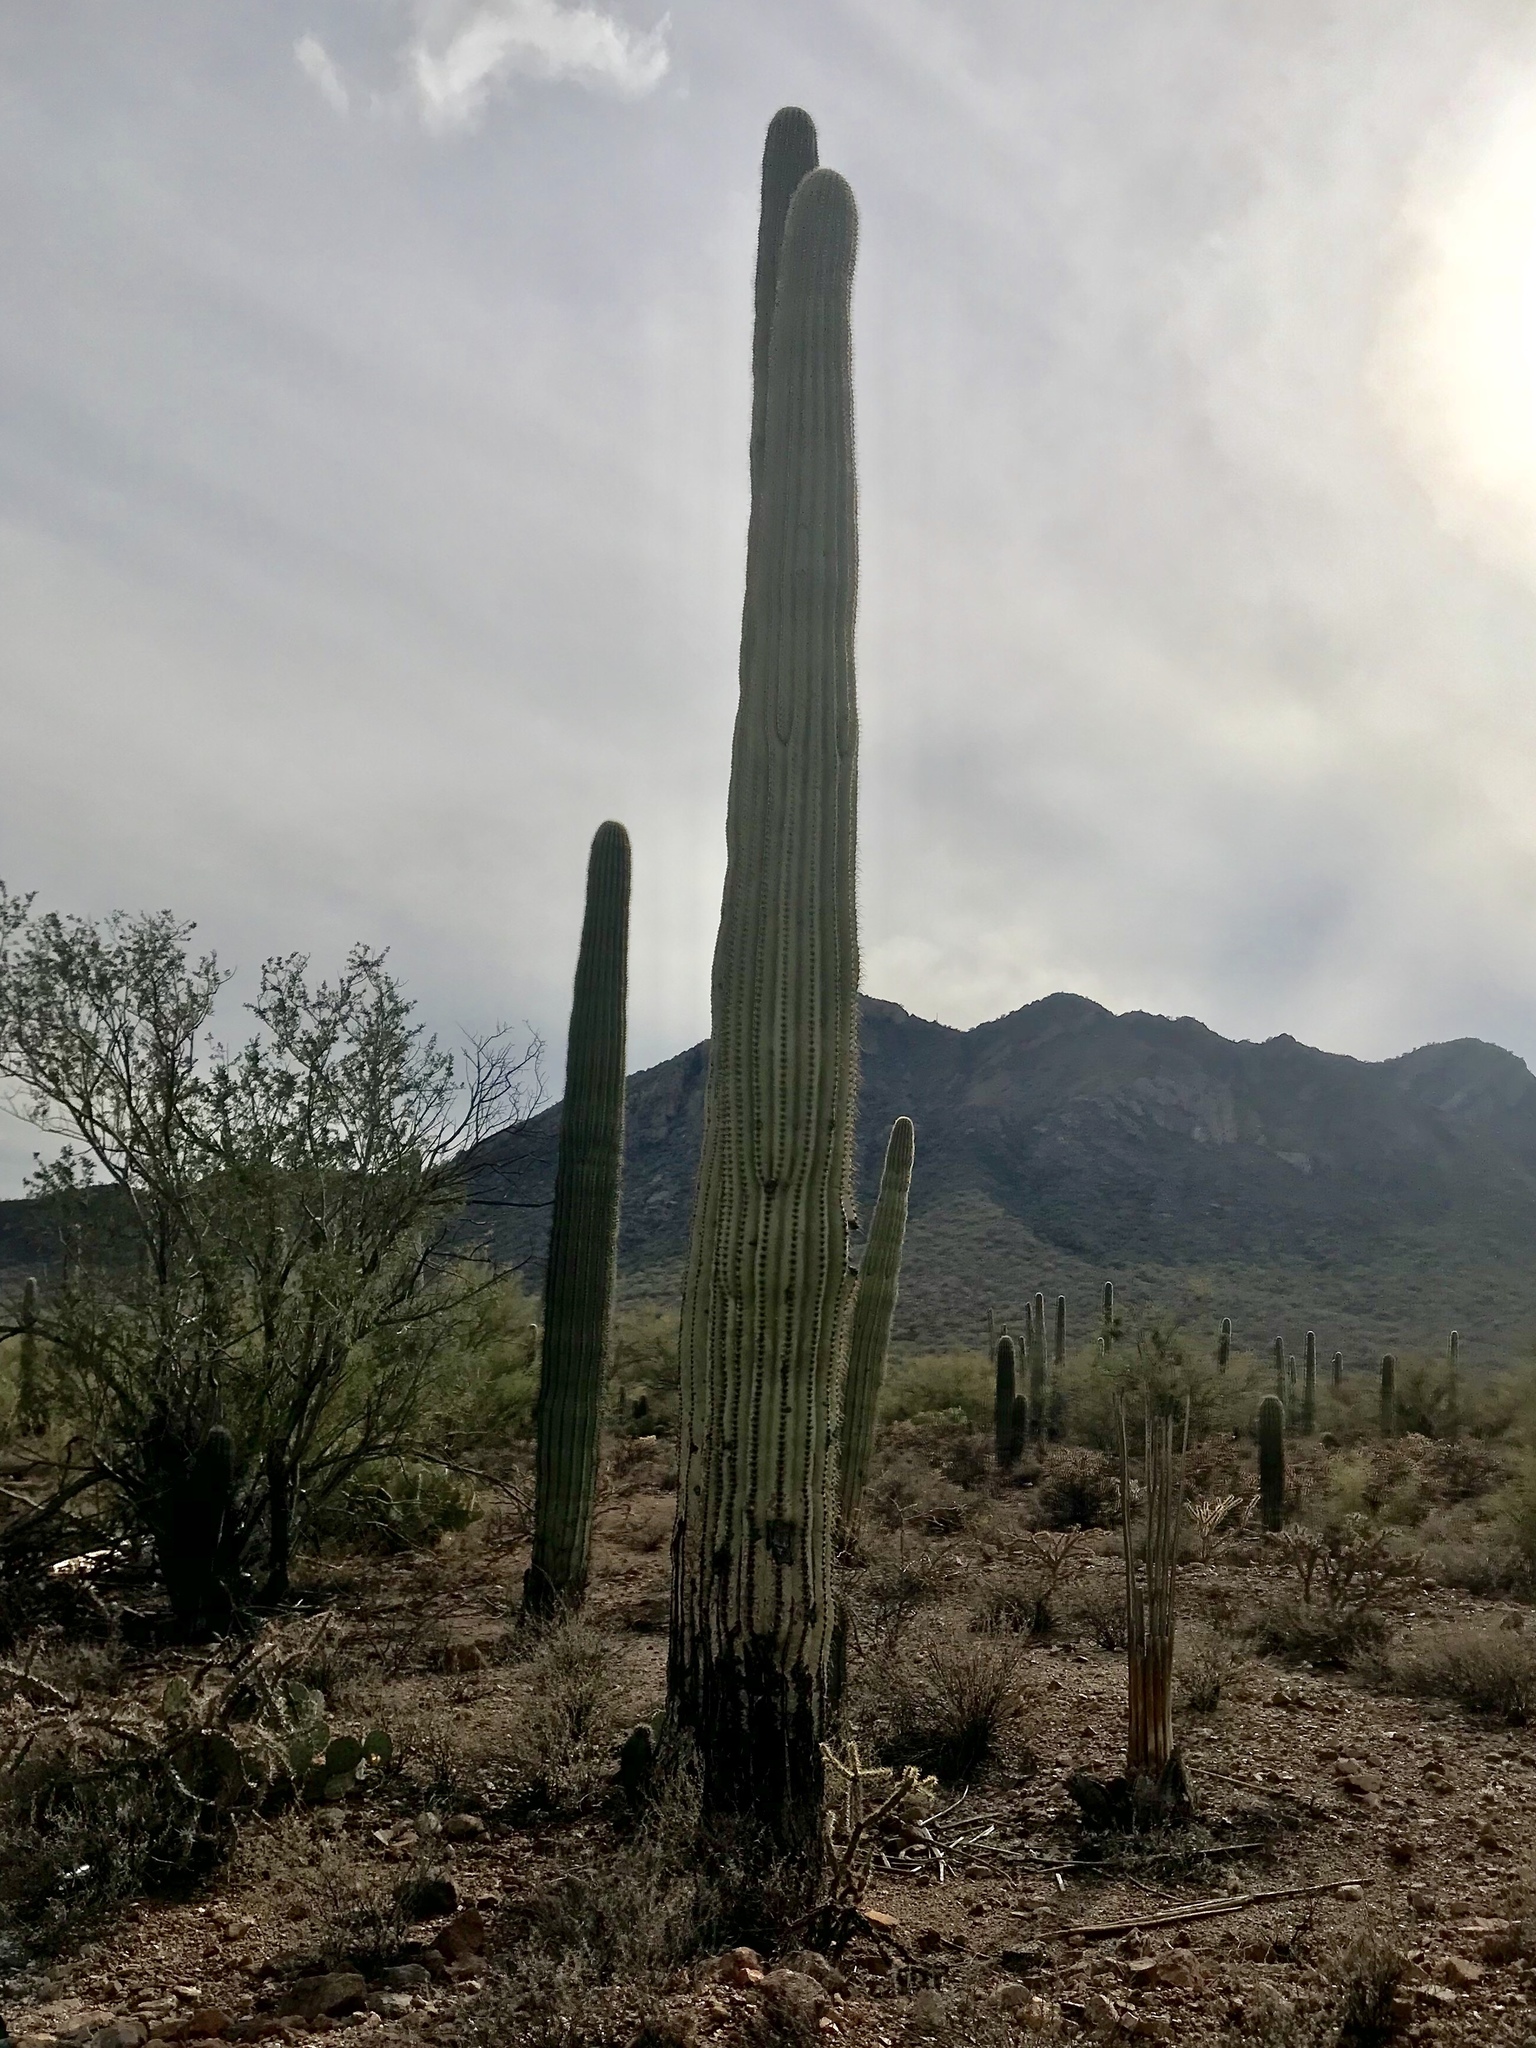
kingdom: Plantae
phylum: Tracheophyta
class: Magnoliopsida
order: Caryophyllales
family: Cactaceae
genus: Carnegiea
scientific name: Carnegiea gigantea
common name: Saguaro
